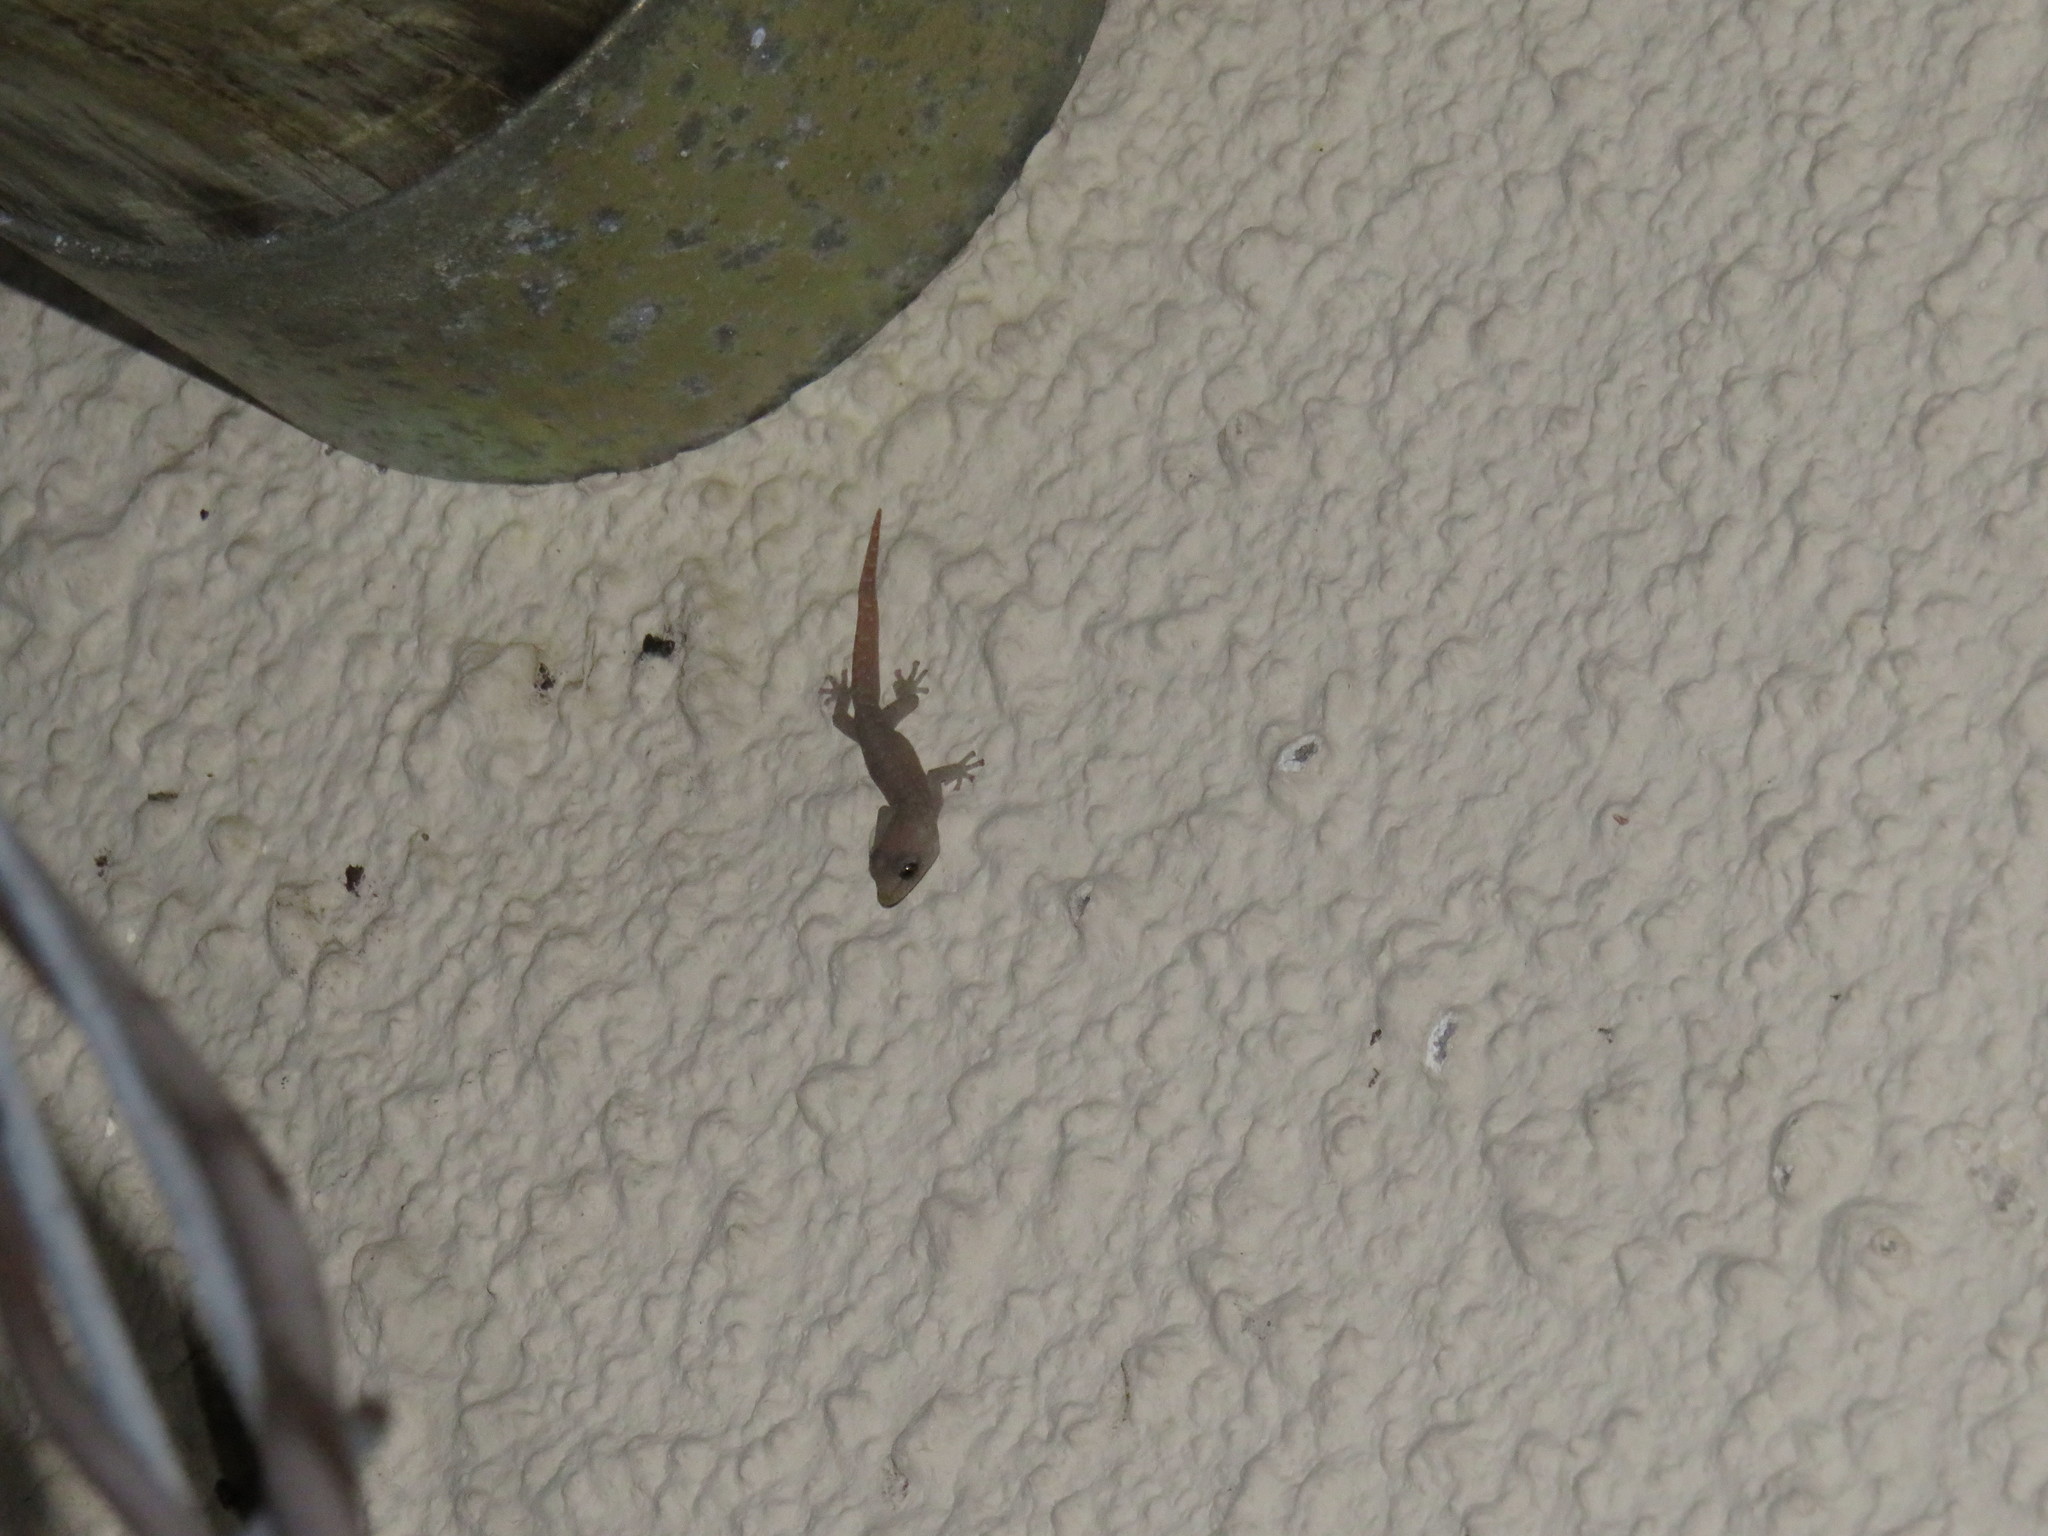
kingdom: Animalia
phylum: Chordata
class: Squamata
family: Gekkonidae
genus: Afrogecko
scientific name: Afrogecko porphyreus
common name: Marbled leaf-toed gecko
